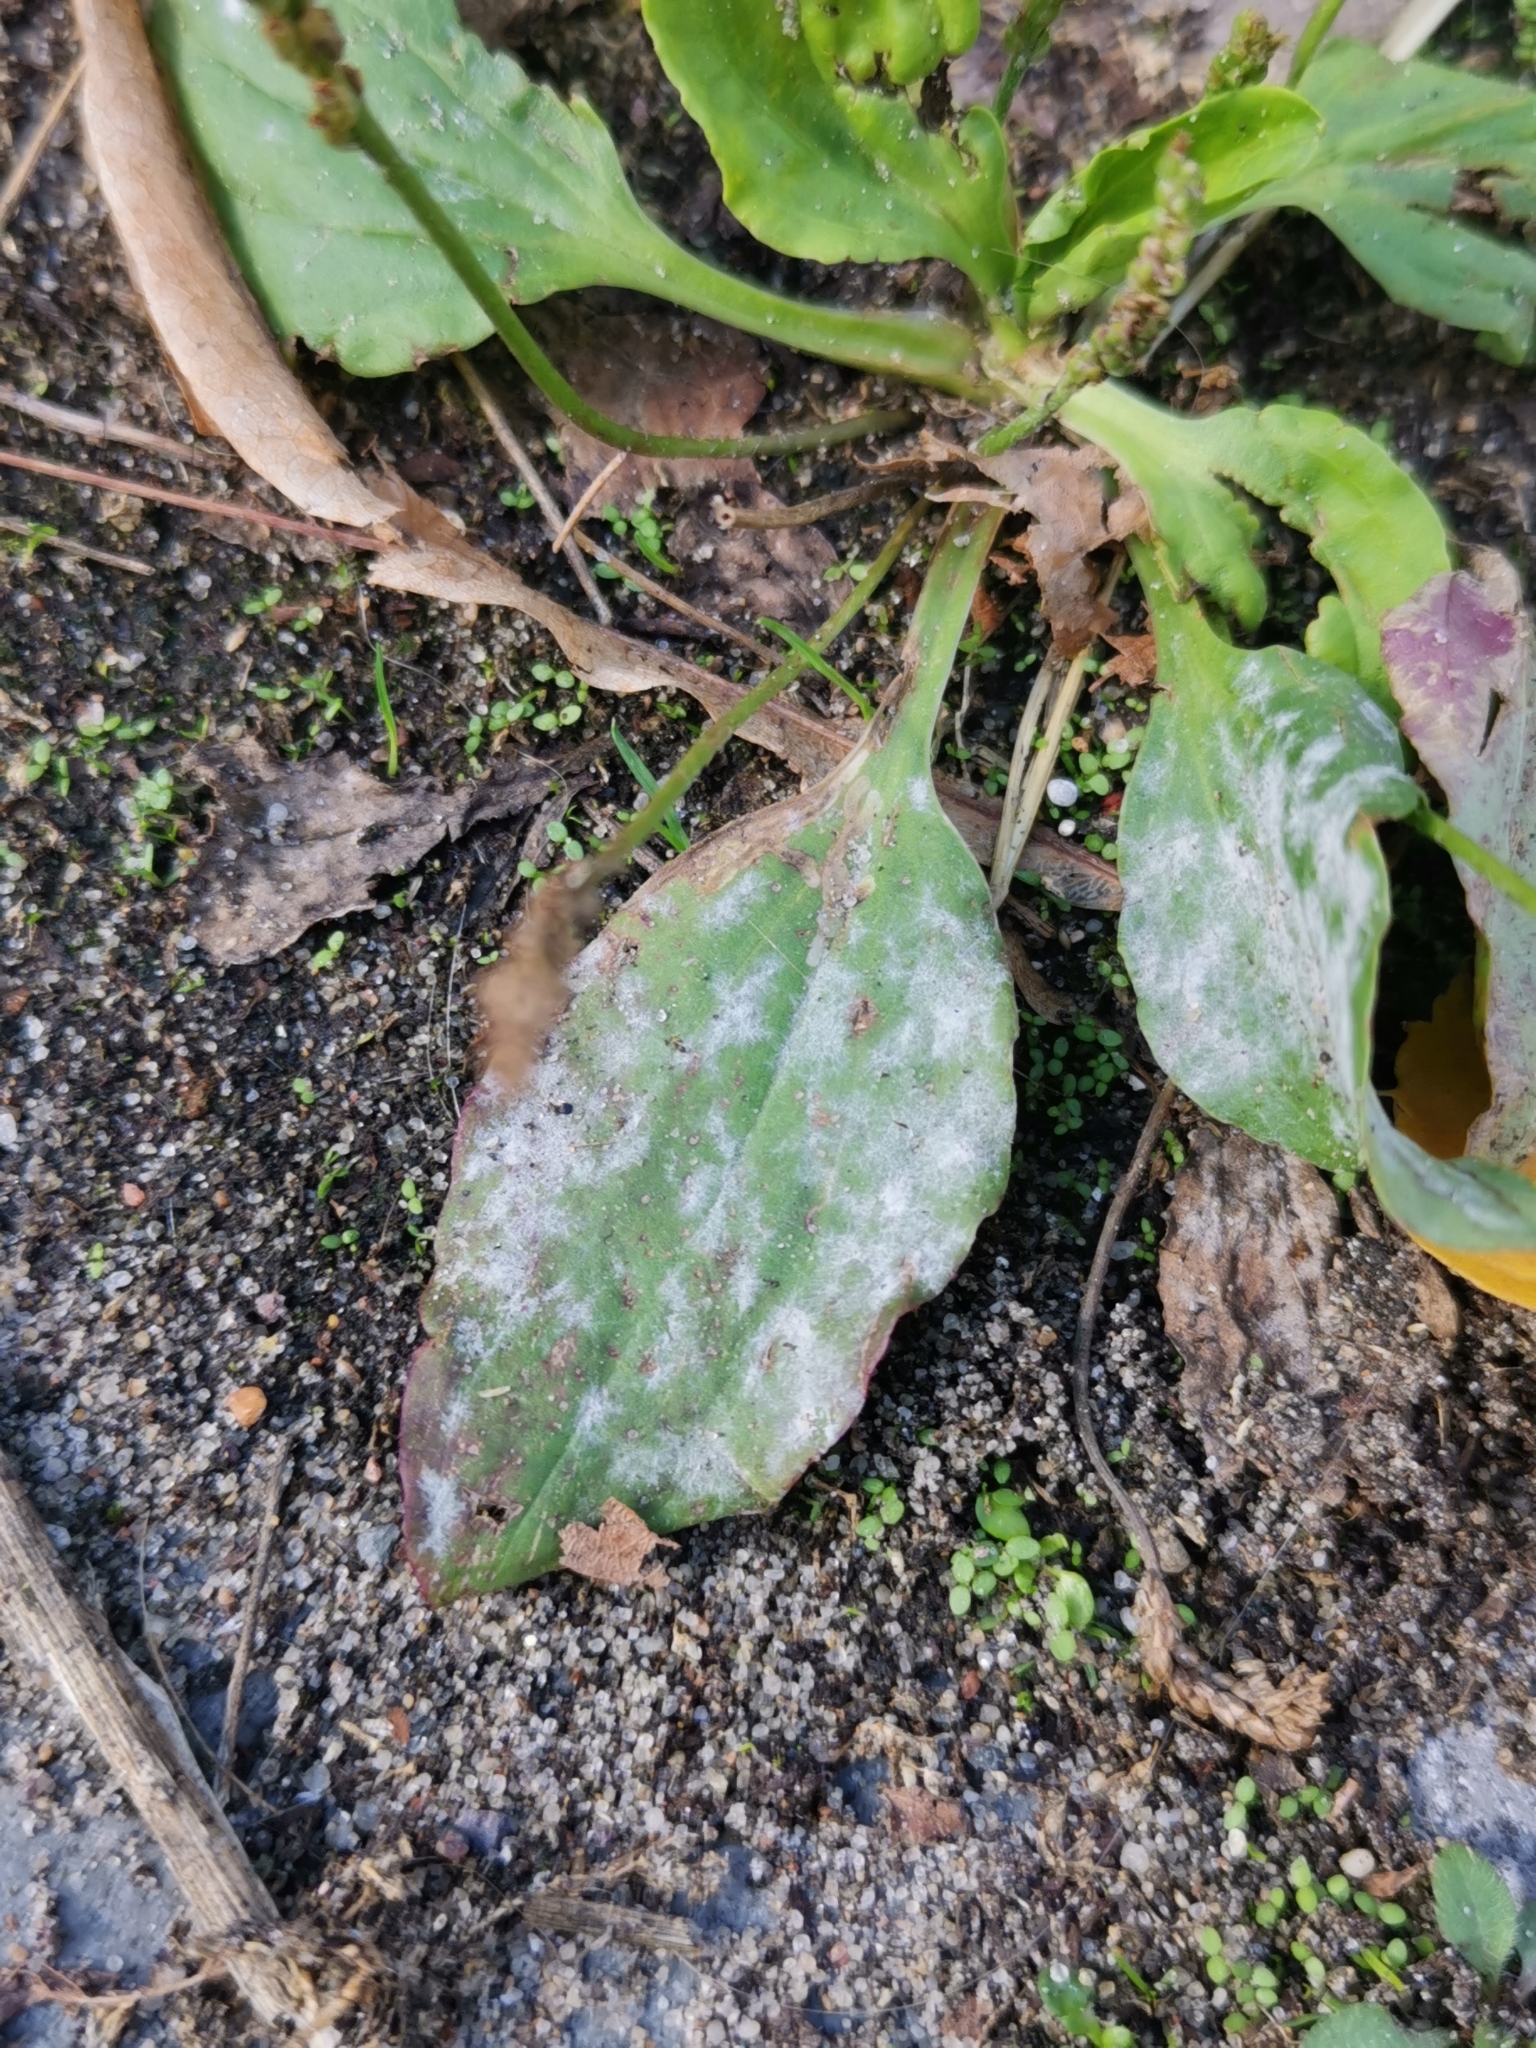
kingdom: Fungi
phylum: Ascomycota
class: Leotiomycetes
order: Helotiales
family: Erysiphaceae
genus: Golovinomyces
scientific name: Golovinomyces sordidus
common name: Plantain mildew
